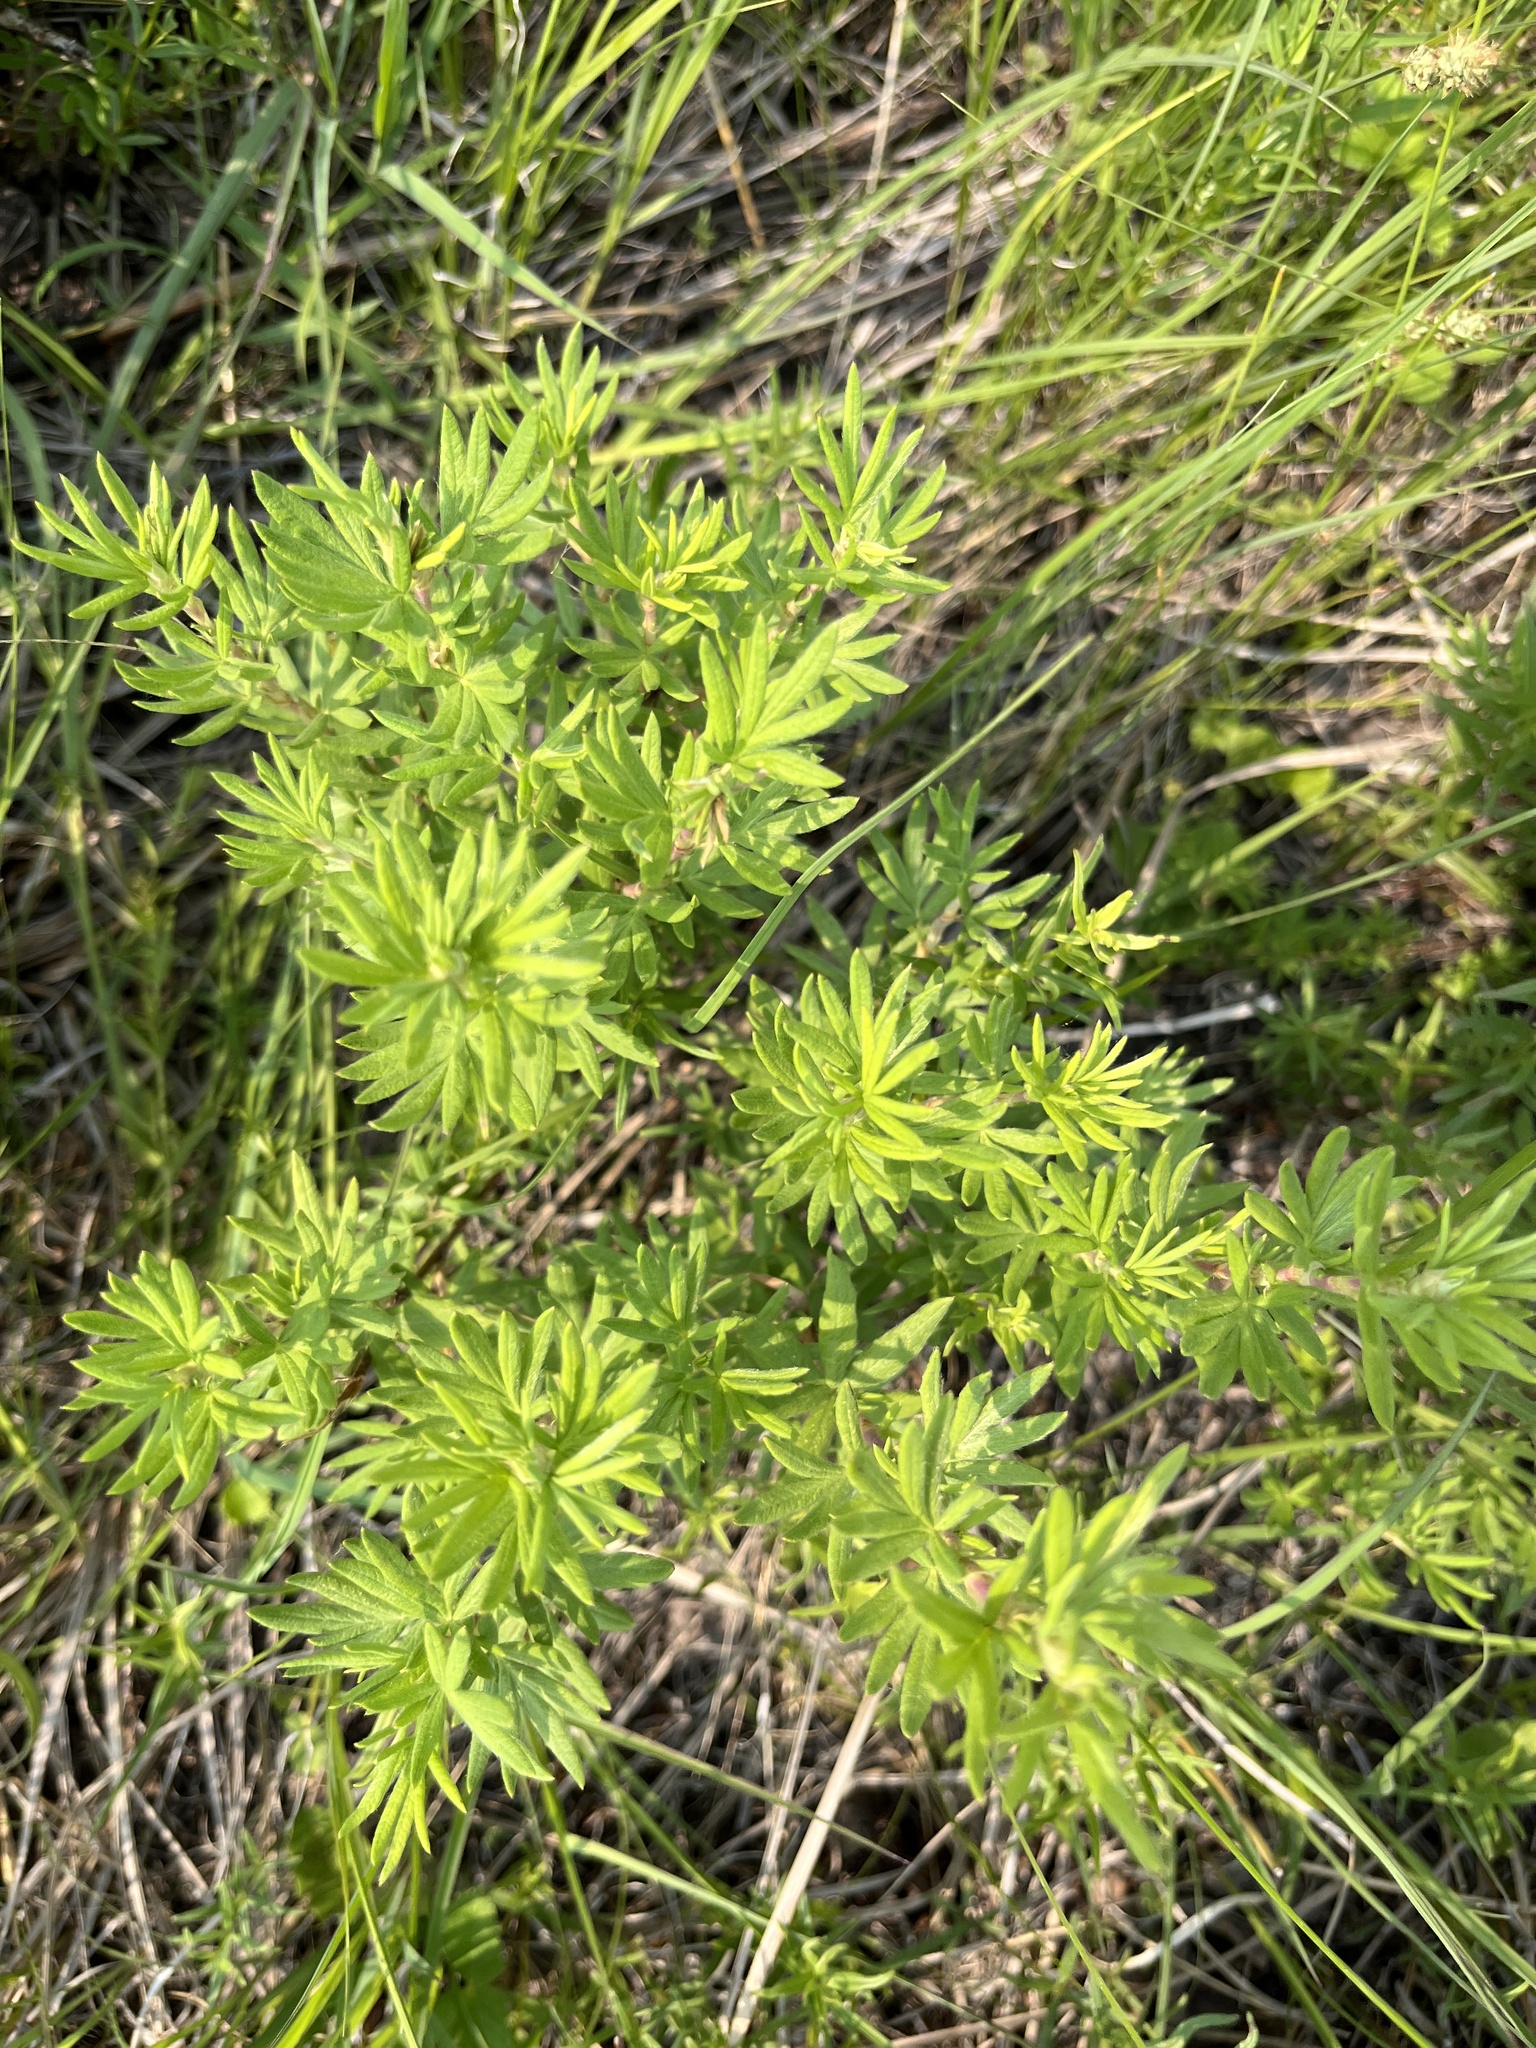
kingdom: Plantae
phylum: Tracheophyta
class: Magnoliopsida
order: Rosales
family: Rosaceae
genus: Dasiphora
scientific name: Dasiphora fruticosa
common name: Shrubby cinquefoil
